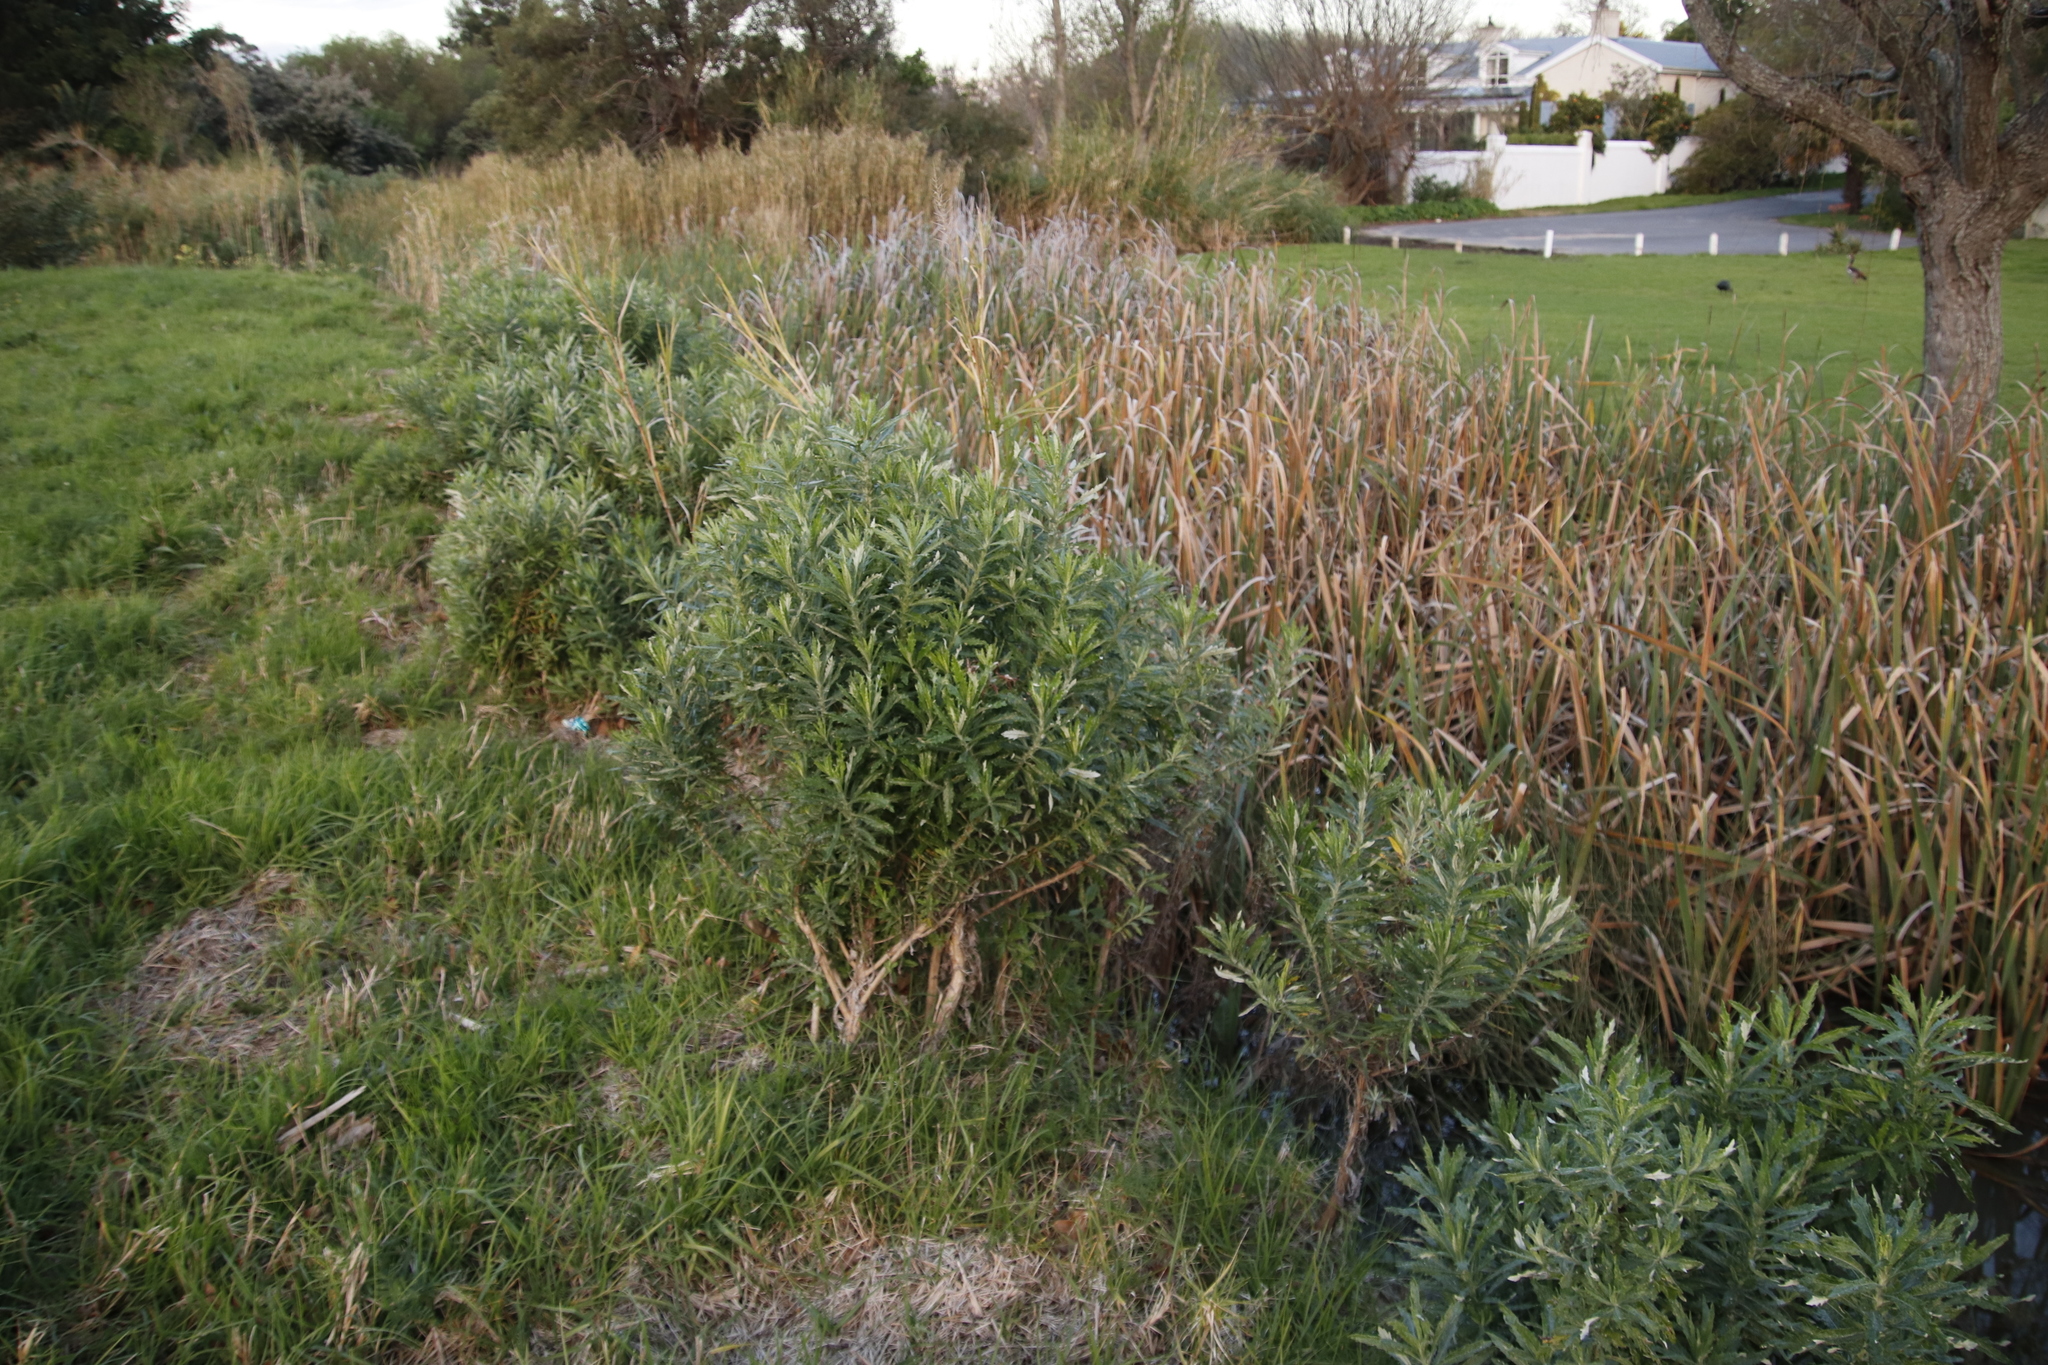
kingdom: Plantae
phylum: Tracheophyta
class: Magnoliopsida
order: Asterales
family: Asteraceae
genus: Senecio
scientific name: Senecio pterophorus
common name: Shoddy ragwort
